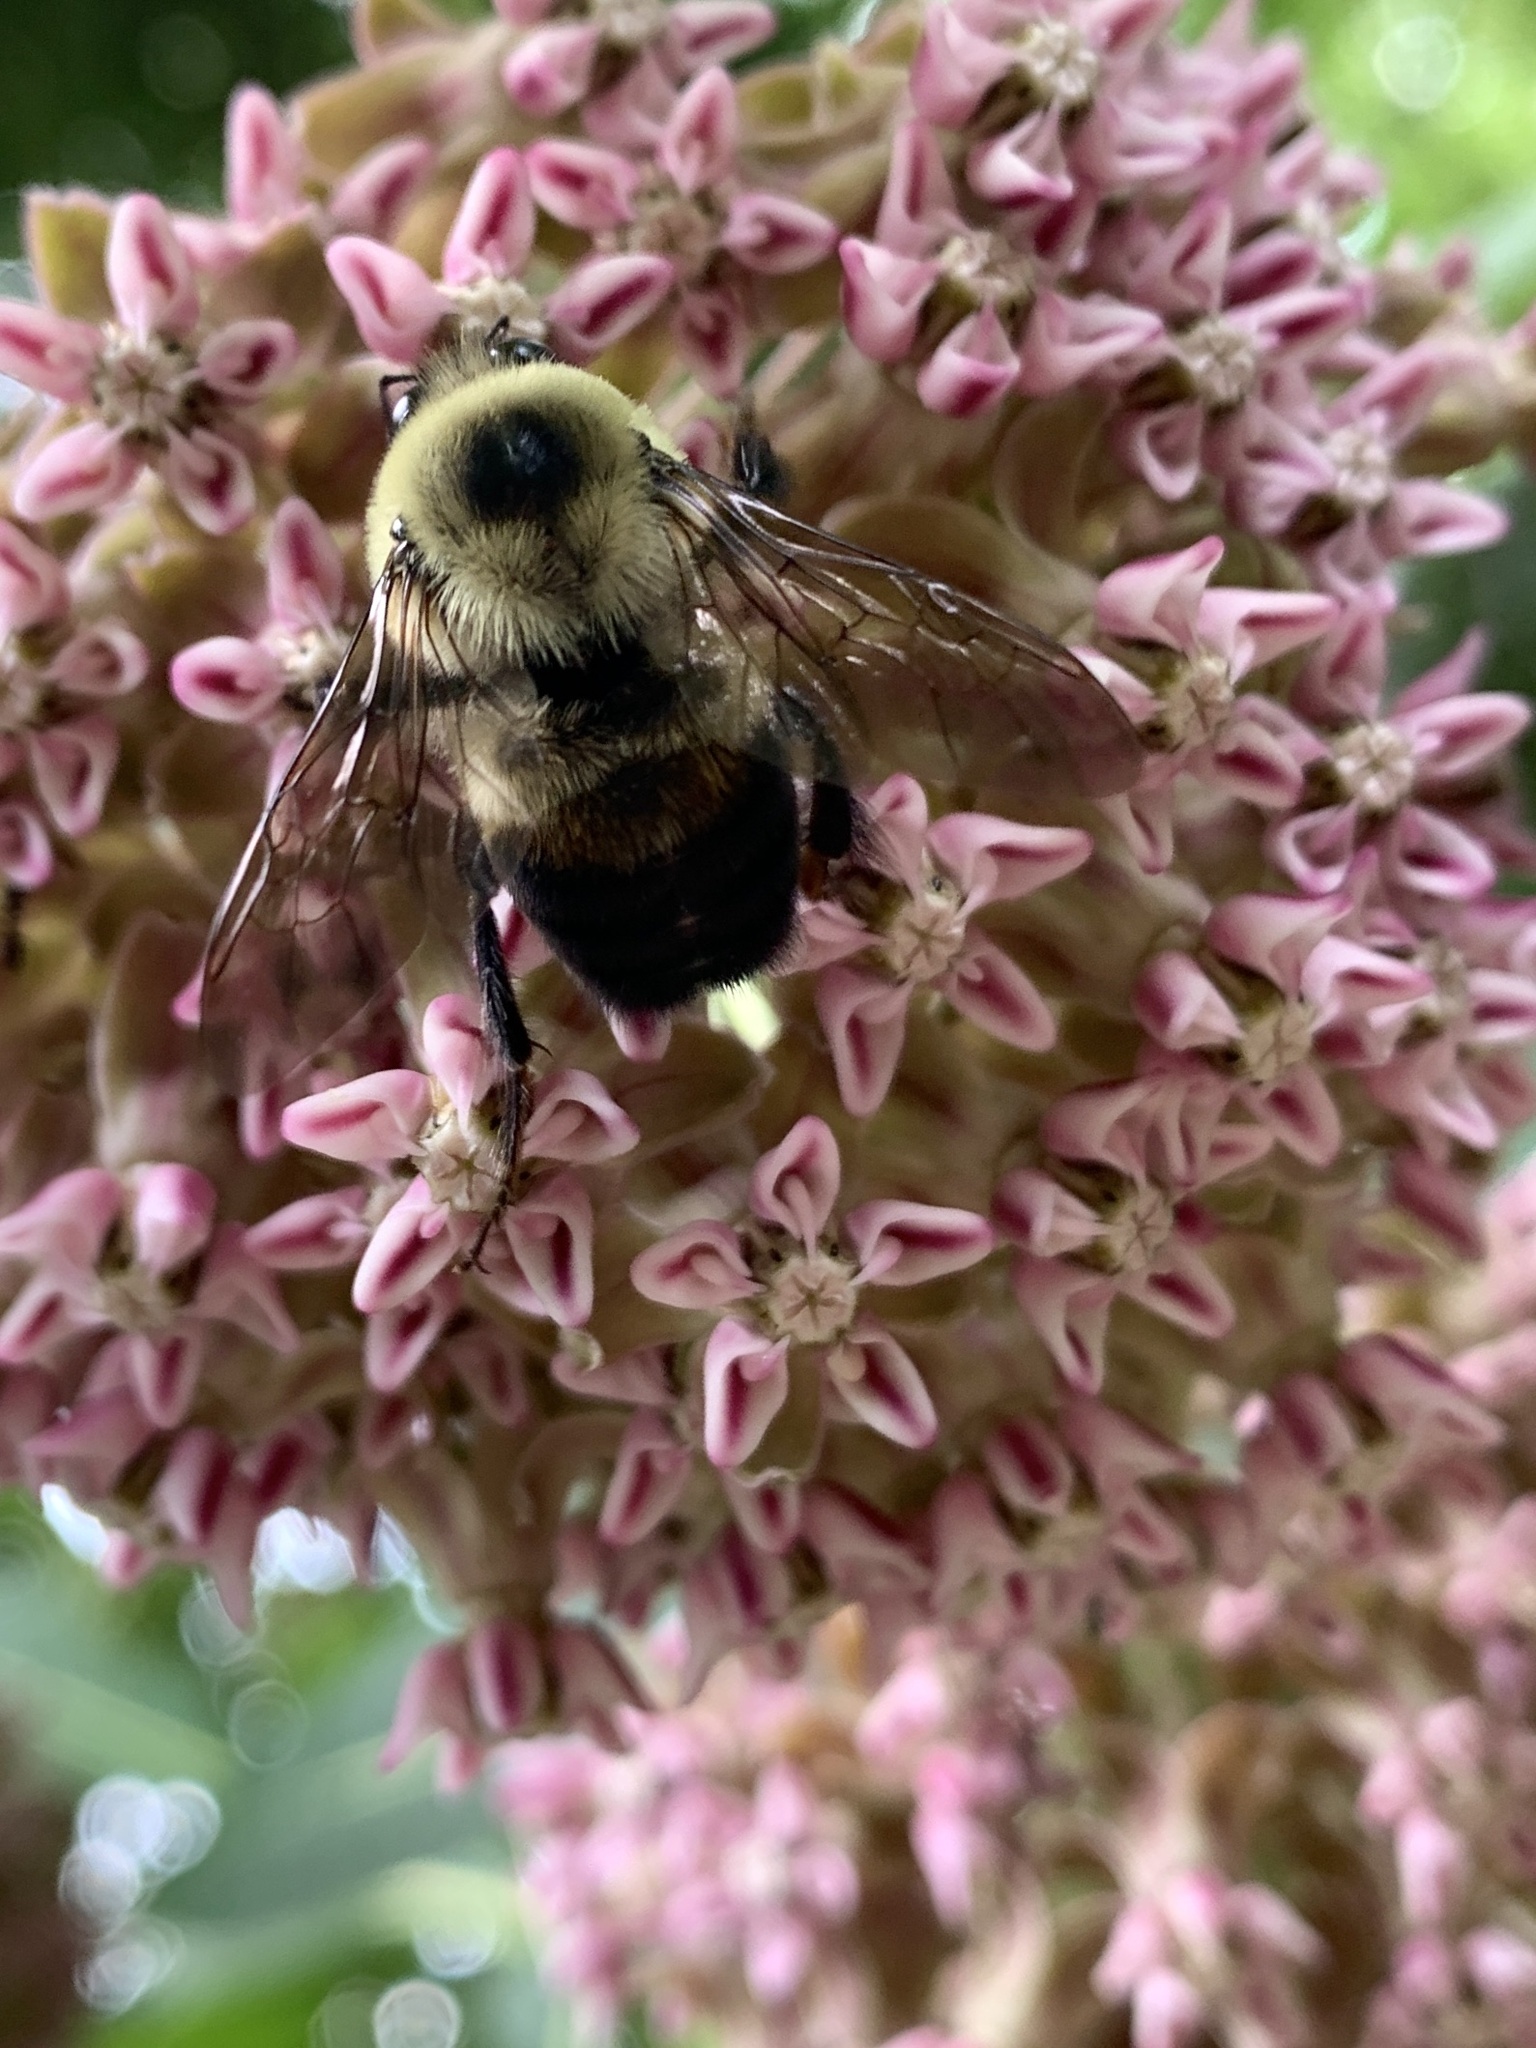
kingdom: Animalia
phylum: Arthropoda
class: Insecta
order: Hymenoptera
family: Apidae
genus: Bombus
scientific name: Bombus griseocollis
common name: Brown-belted bumble bee
